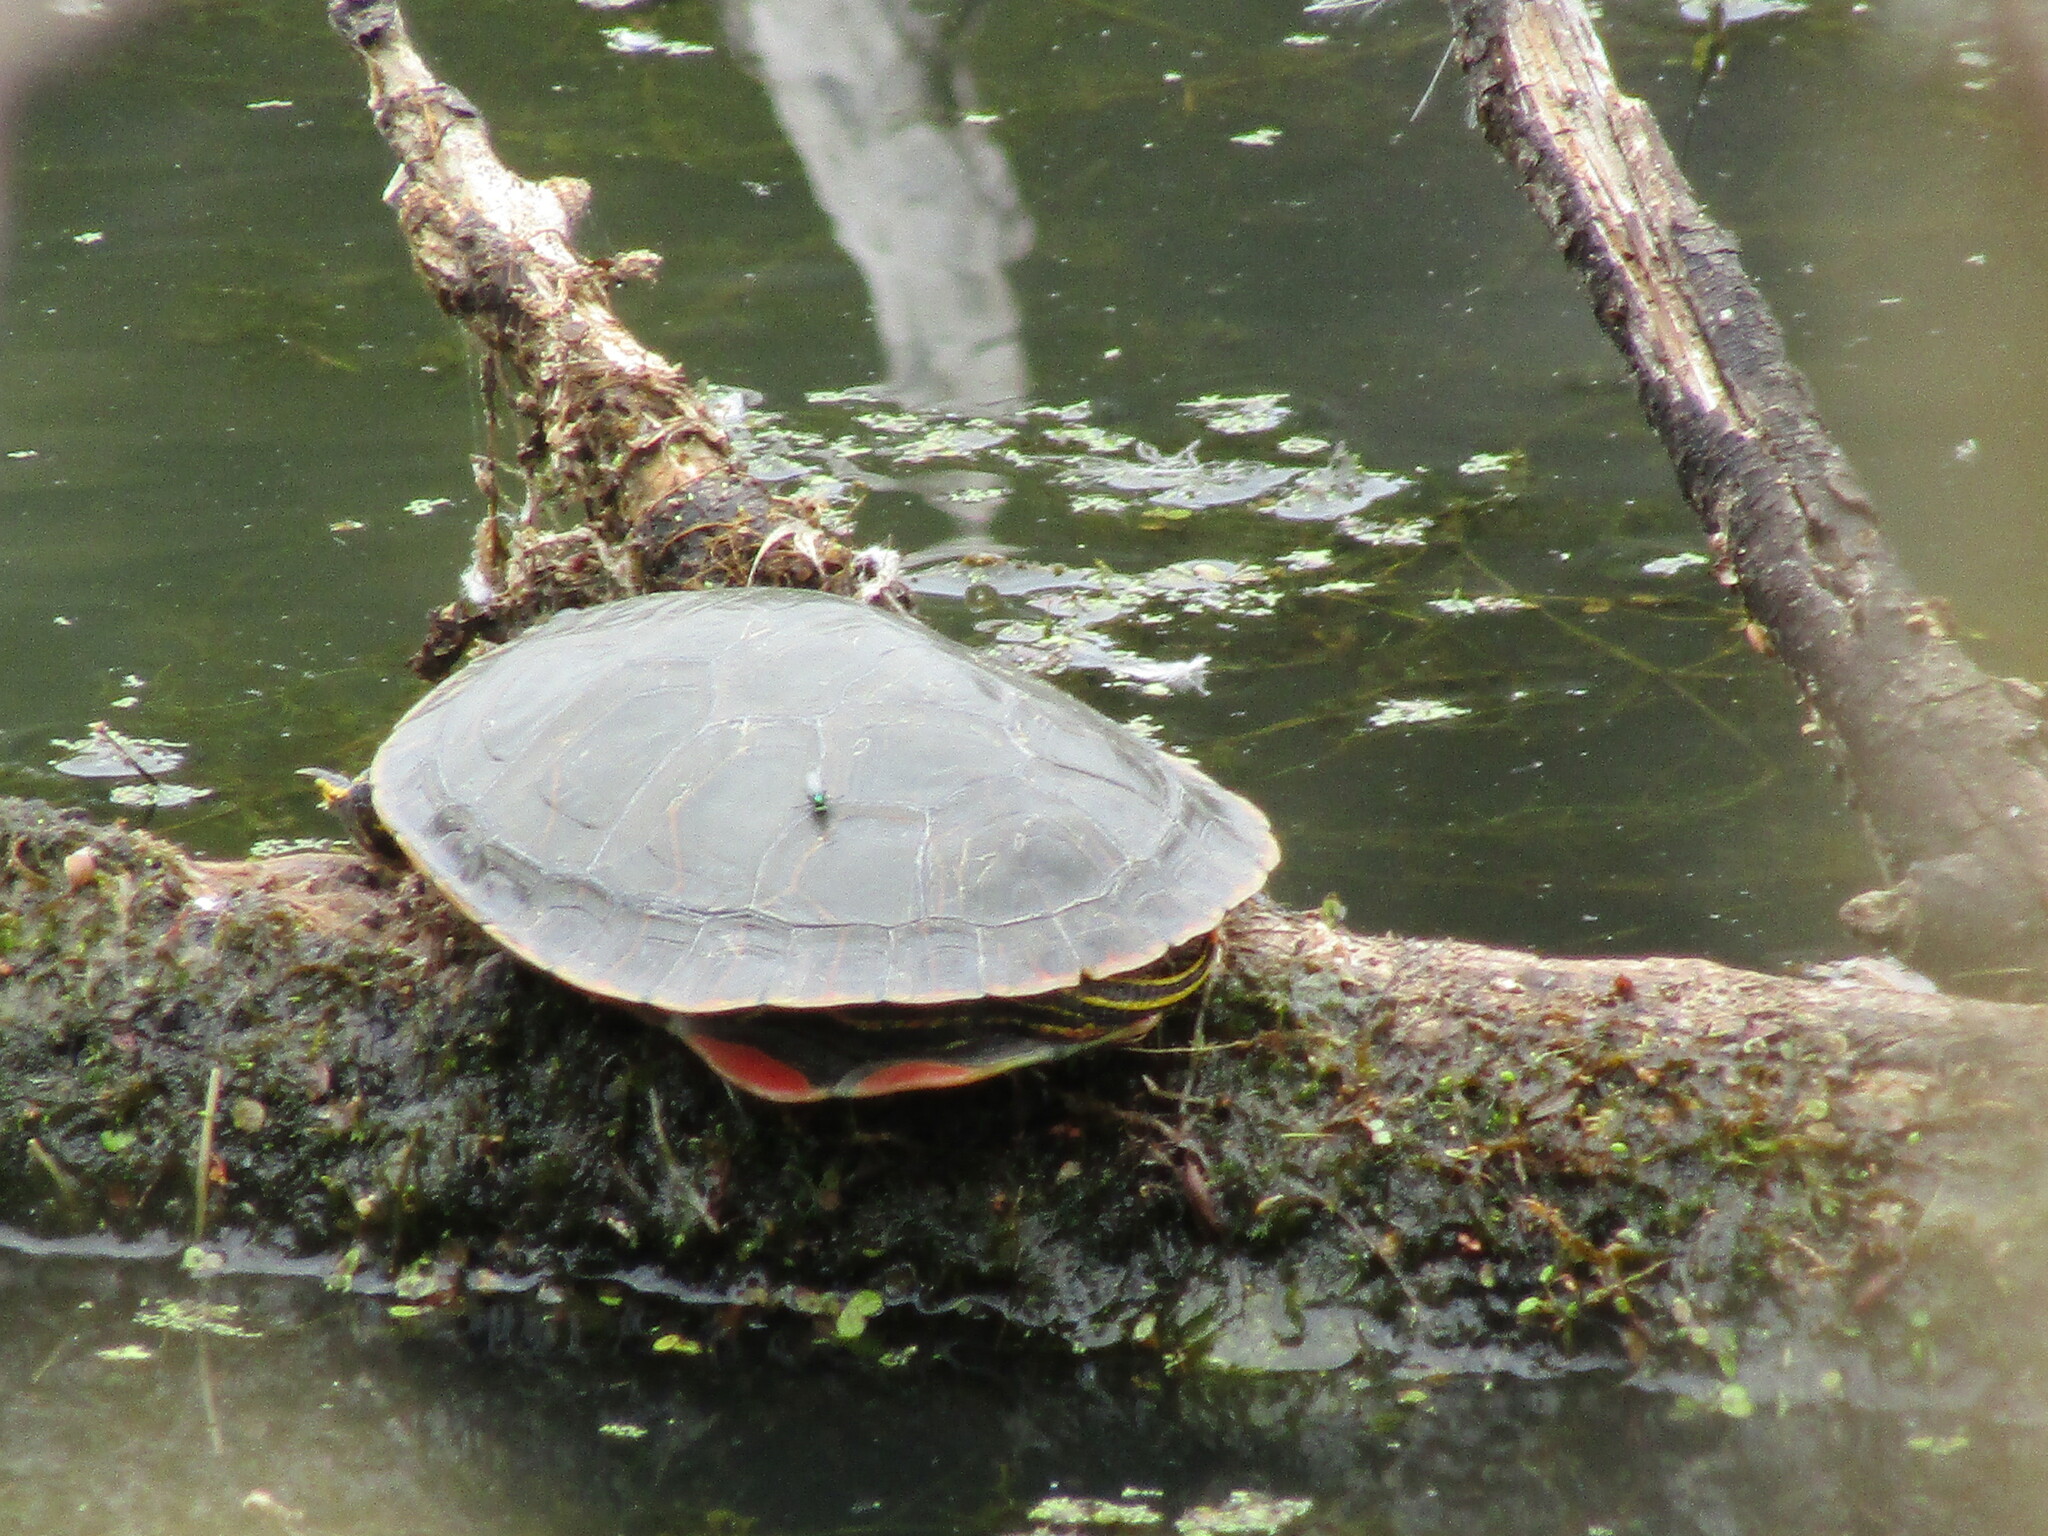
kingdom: Animalia
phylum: Chordata
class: Testudines
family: Emydidae
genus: Chrysemys
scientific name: Chrysemys picta
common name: Painted turtle
